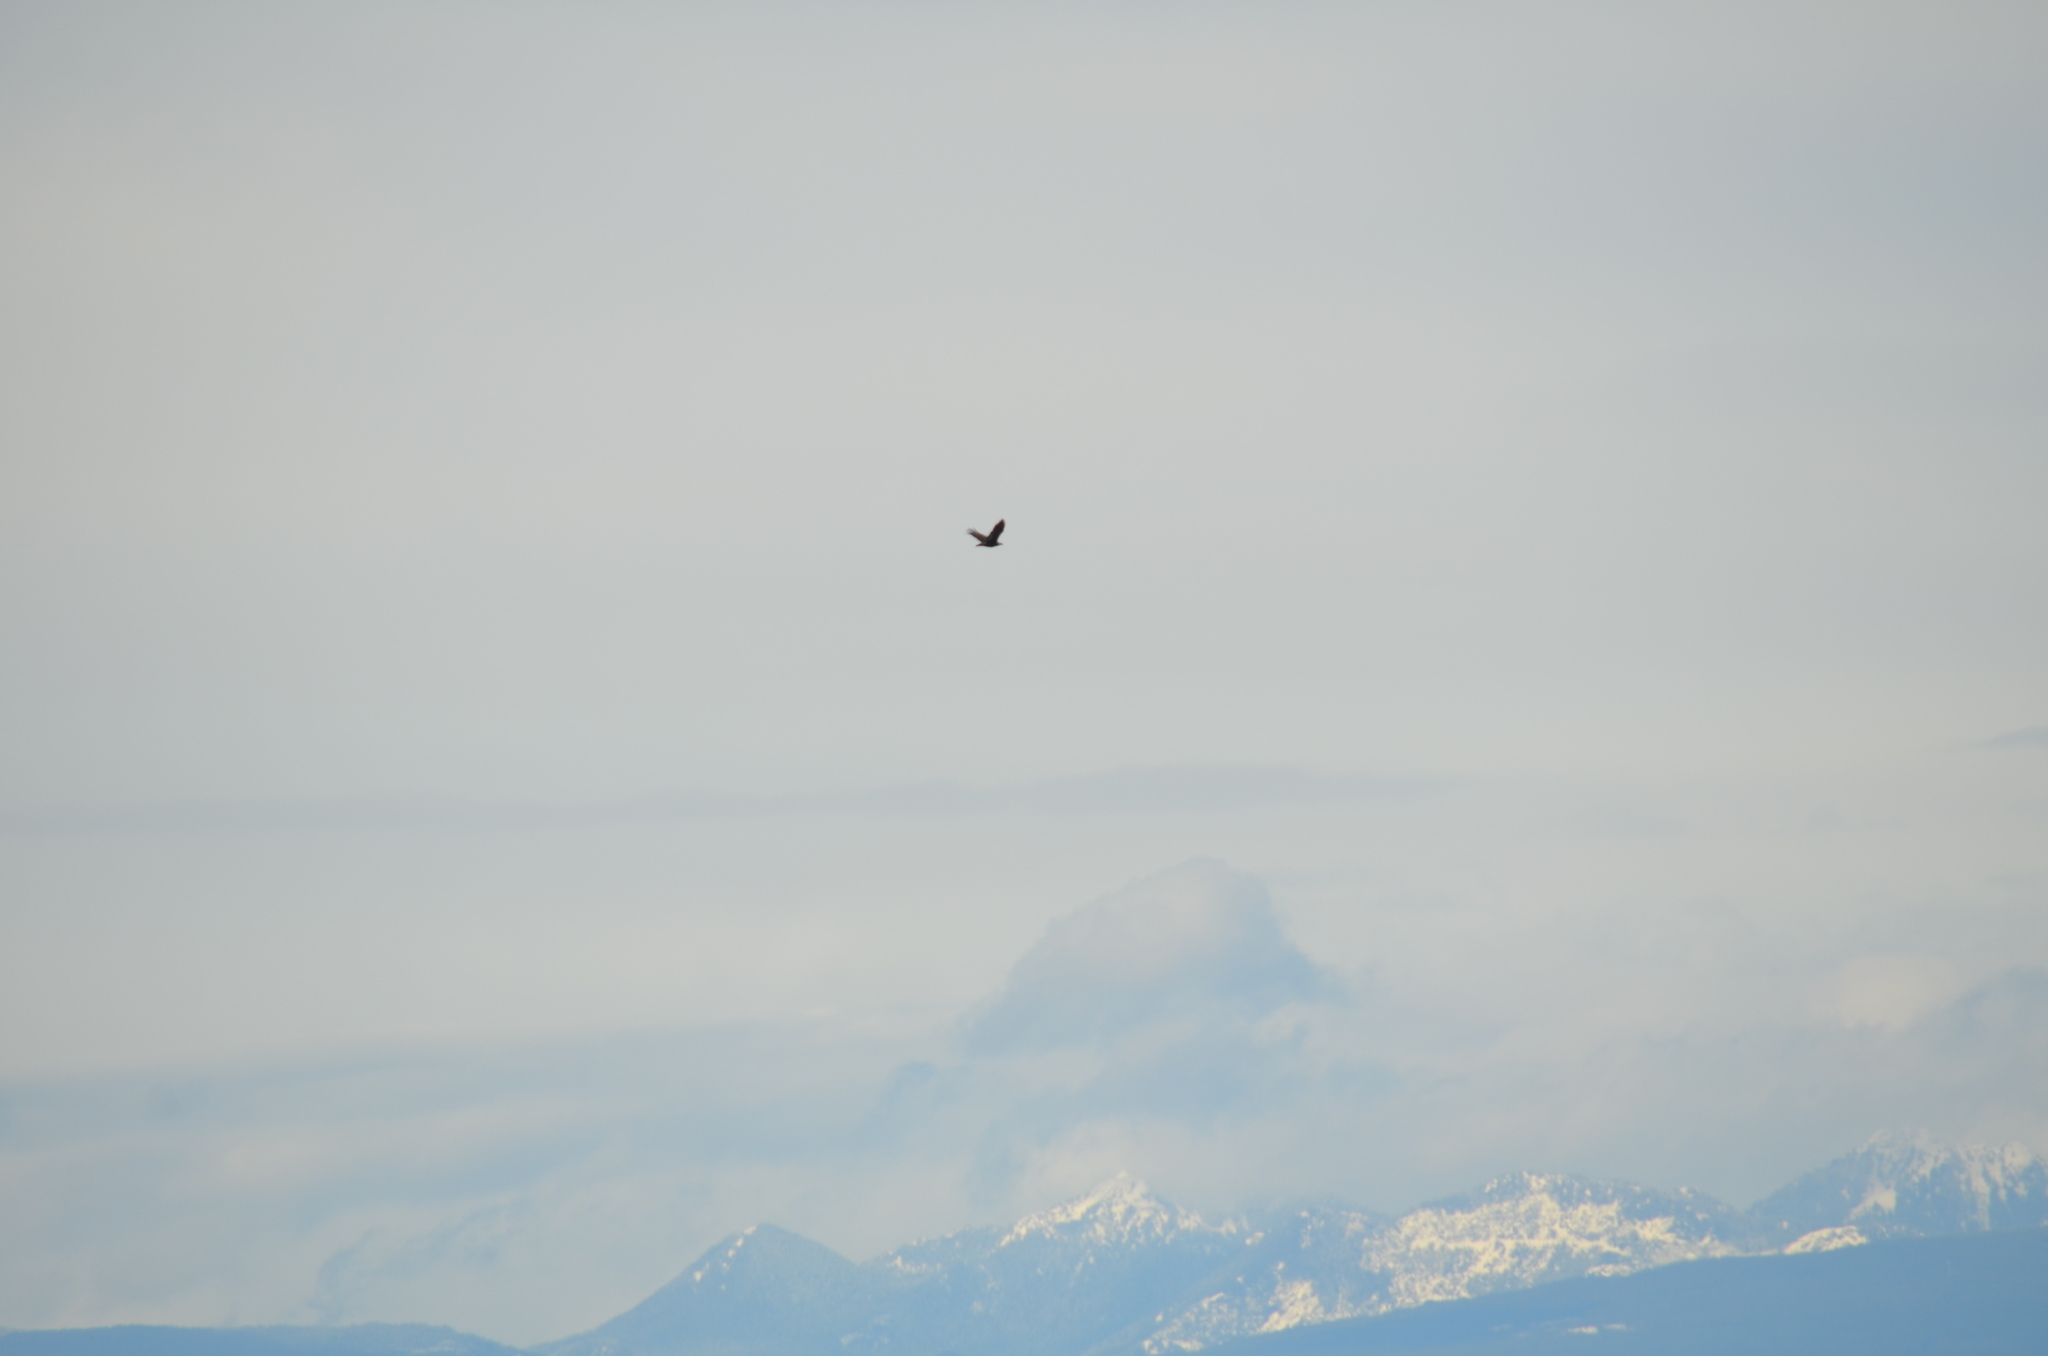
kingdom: Animalia
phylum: Chordata
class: Aves
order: Accipitriformes
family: Accipitridae
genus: Haliaeetus
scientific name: Haliaeetus leucocephalus
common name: Bald eagle
